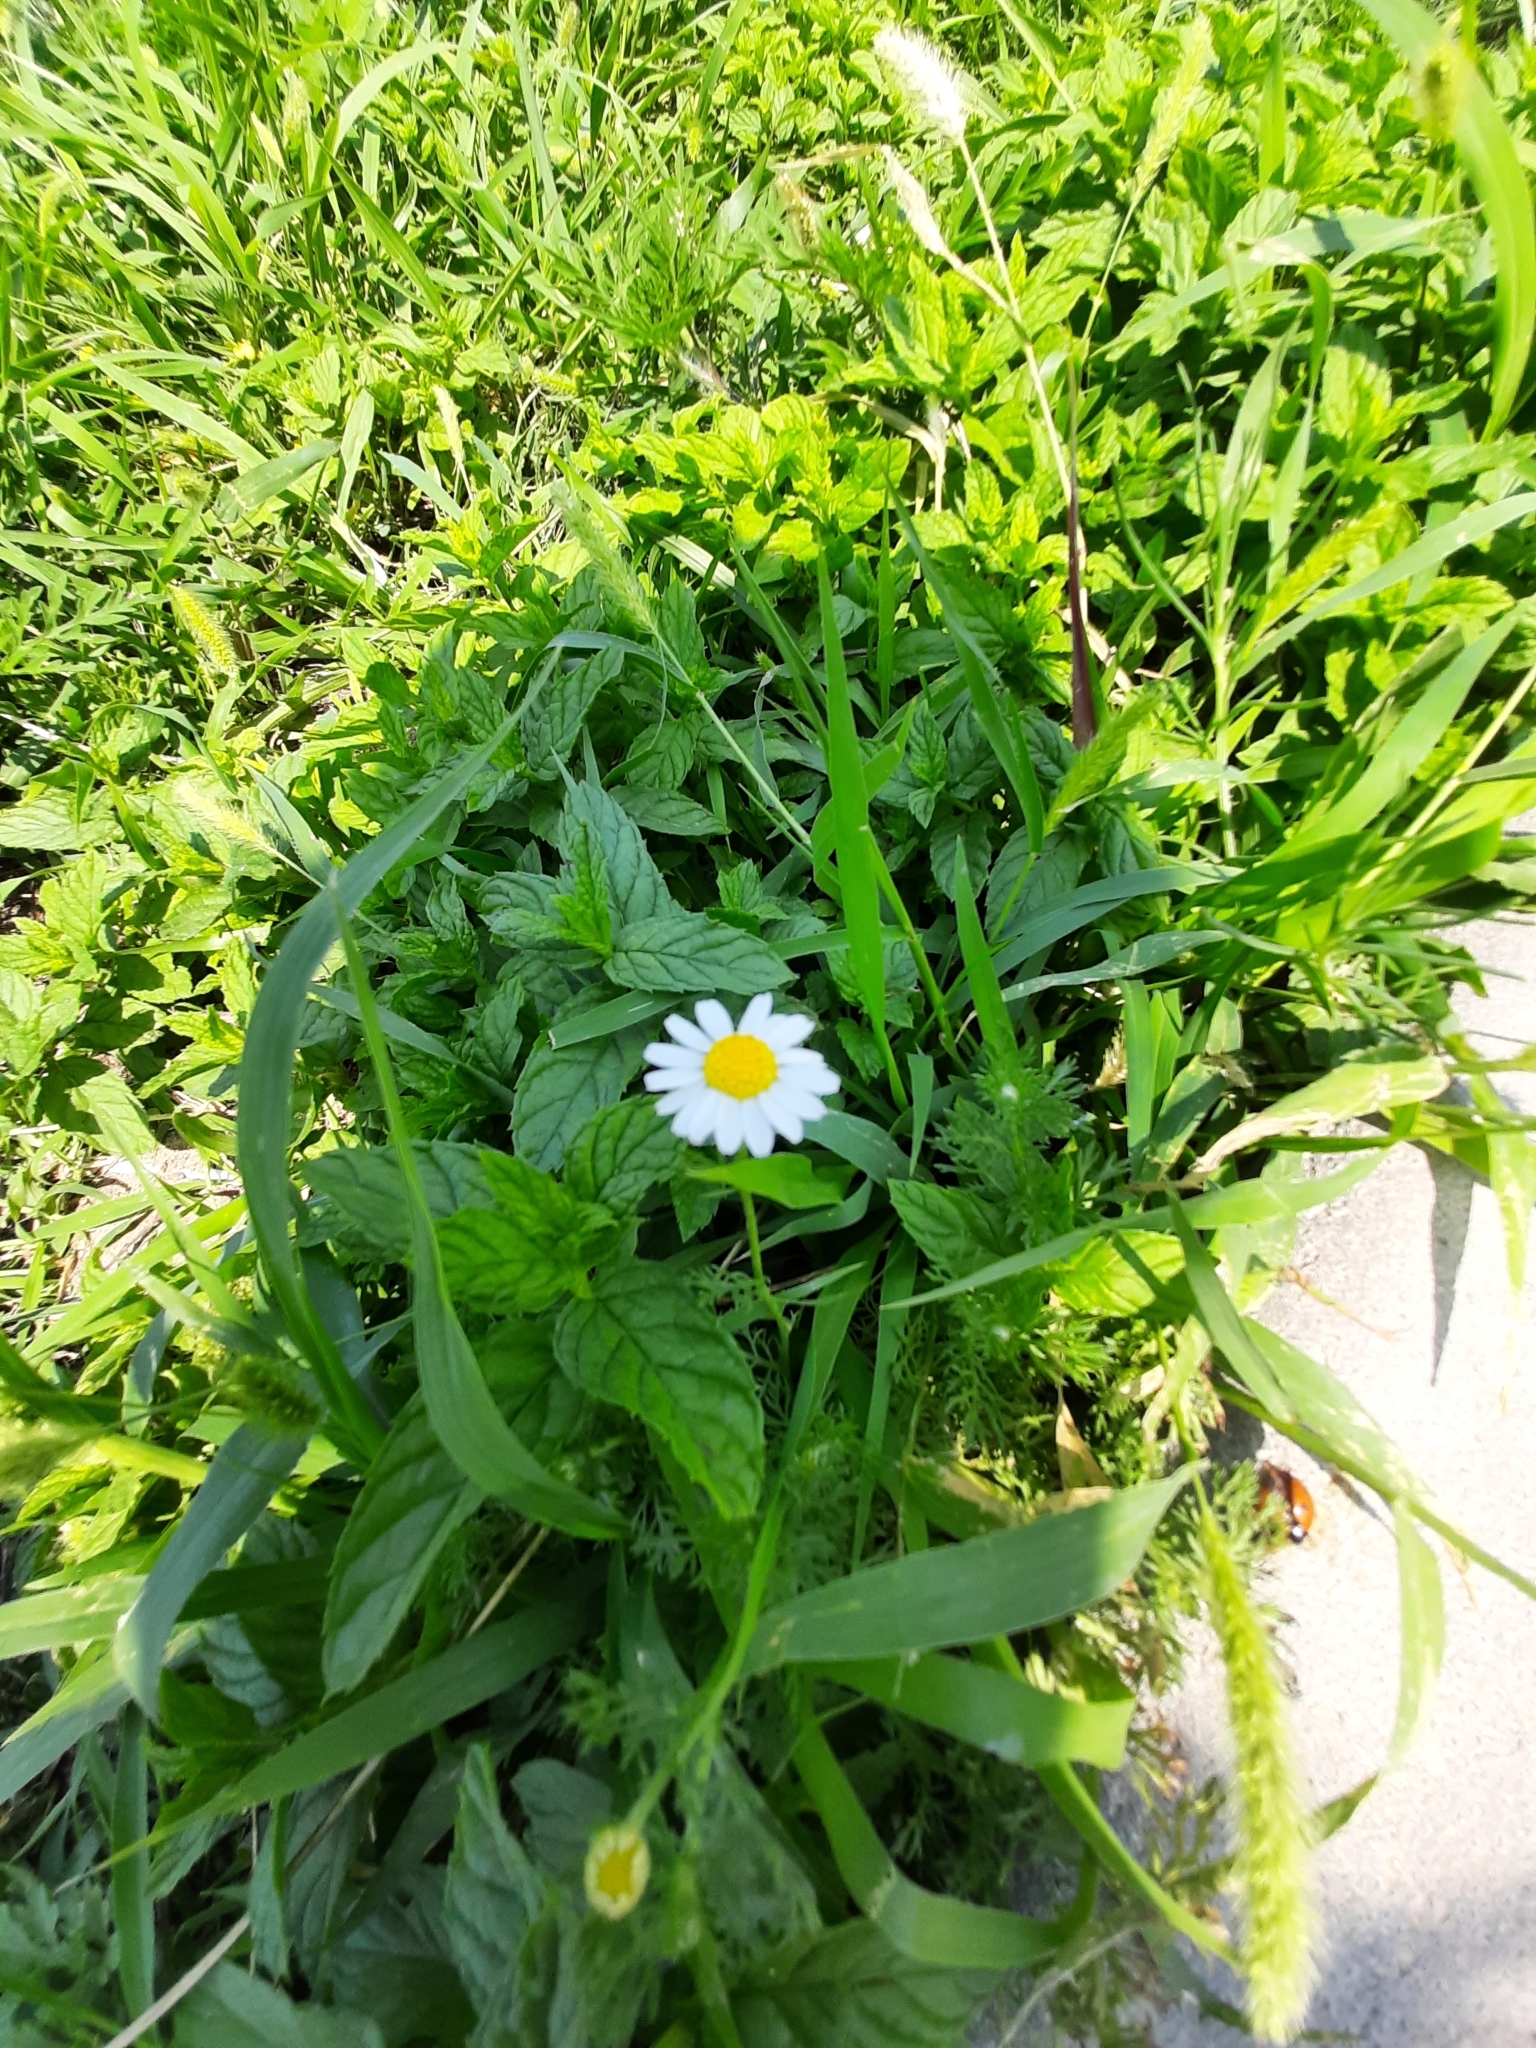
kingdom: Plantae
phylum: Tracheophyta
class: Magnoliopsida
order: Asterales
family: Asteraceae
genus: Erigeron
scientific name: Erigeron annuus
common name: Tall fleabane
